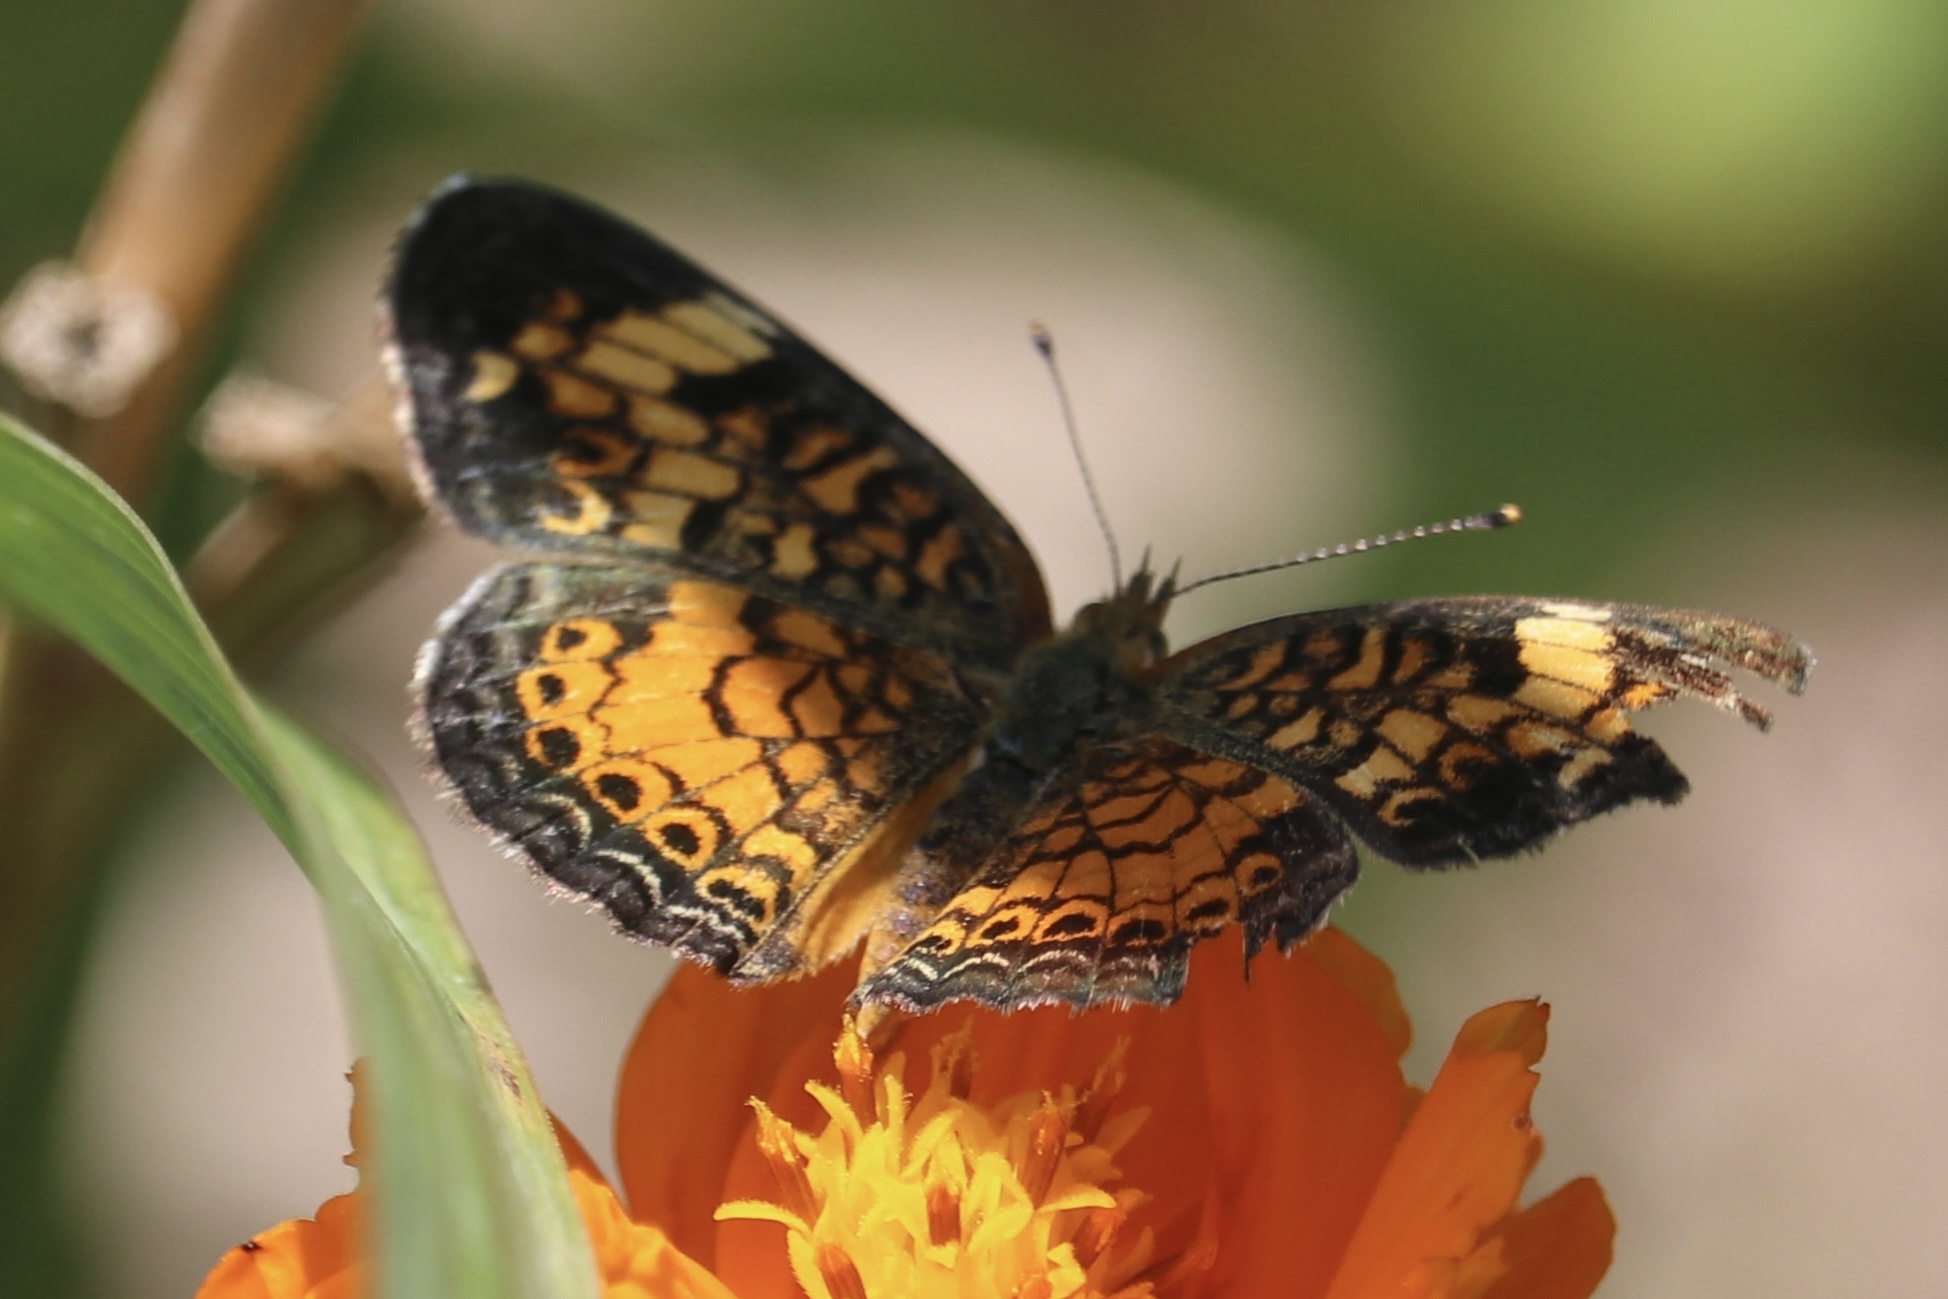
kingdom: Animalia
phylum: Arthropoda
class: Insecta
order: Lepidoptera
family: Nymphalidae
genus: Phyciodes
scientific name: Phyciodes tharos
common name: Pearl crescent
